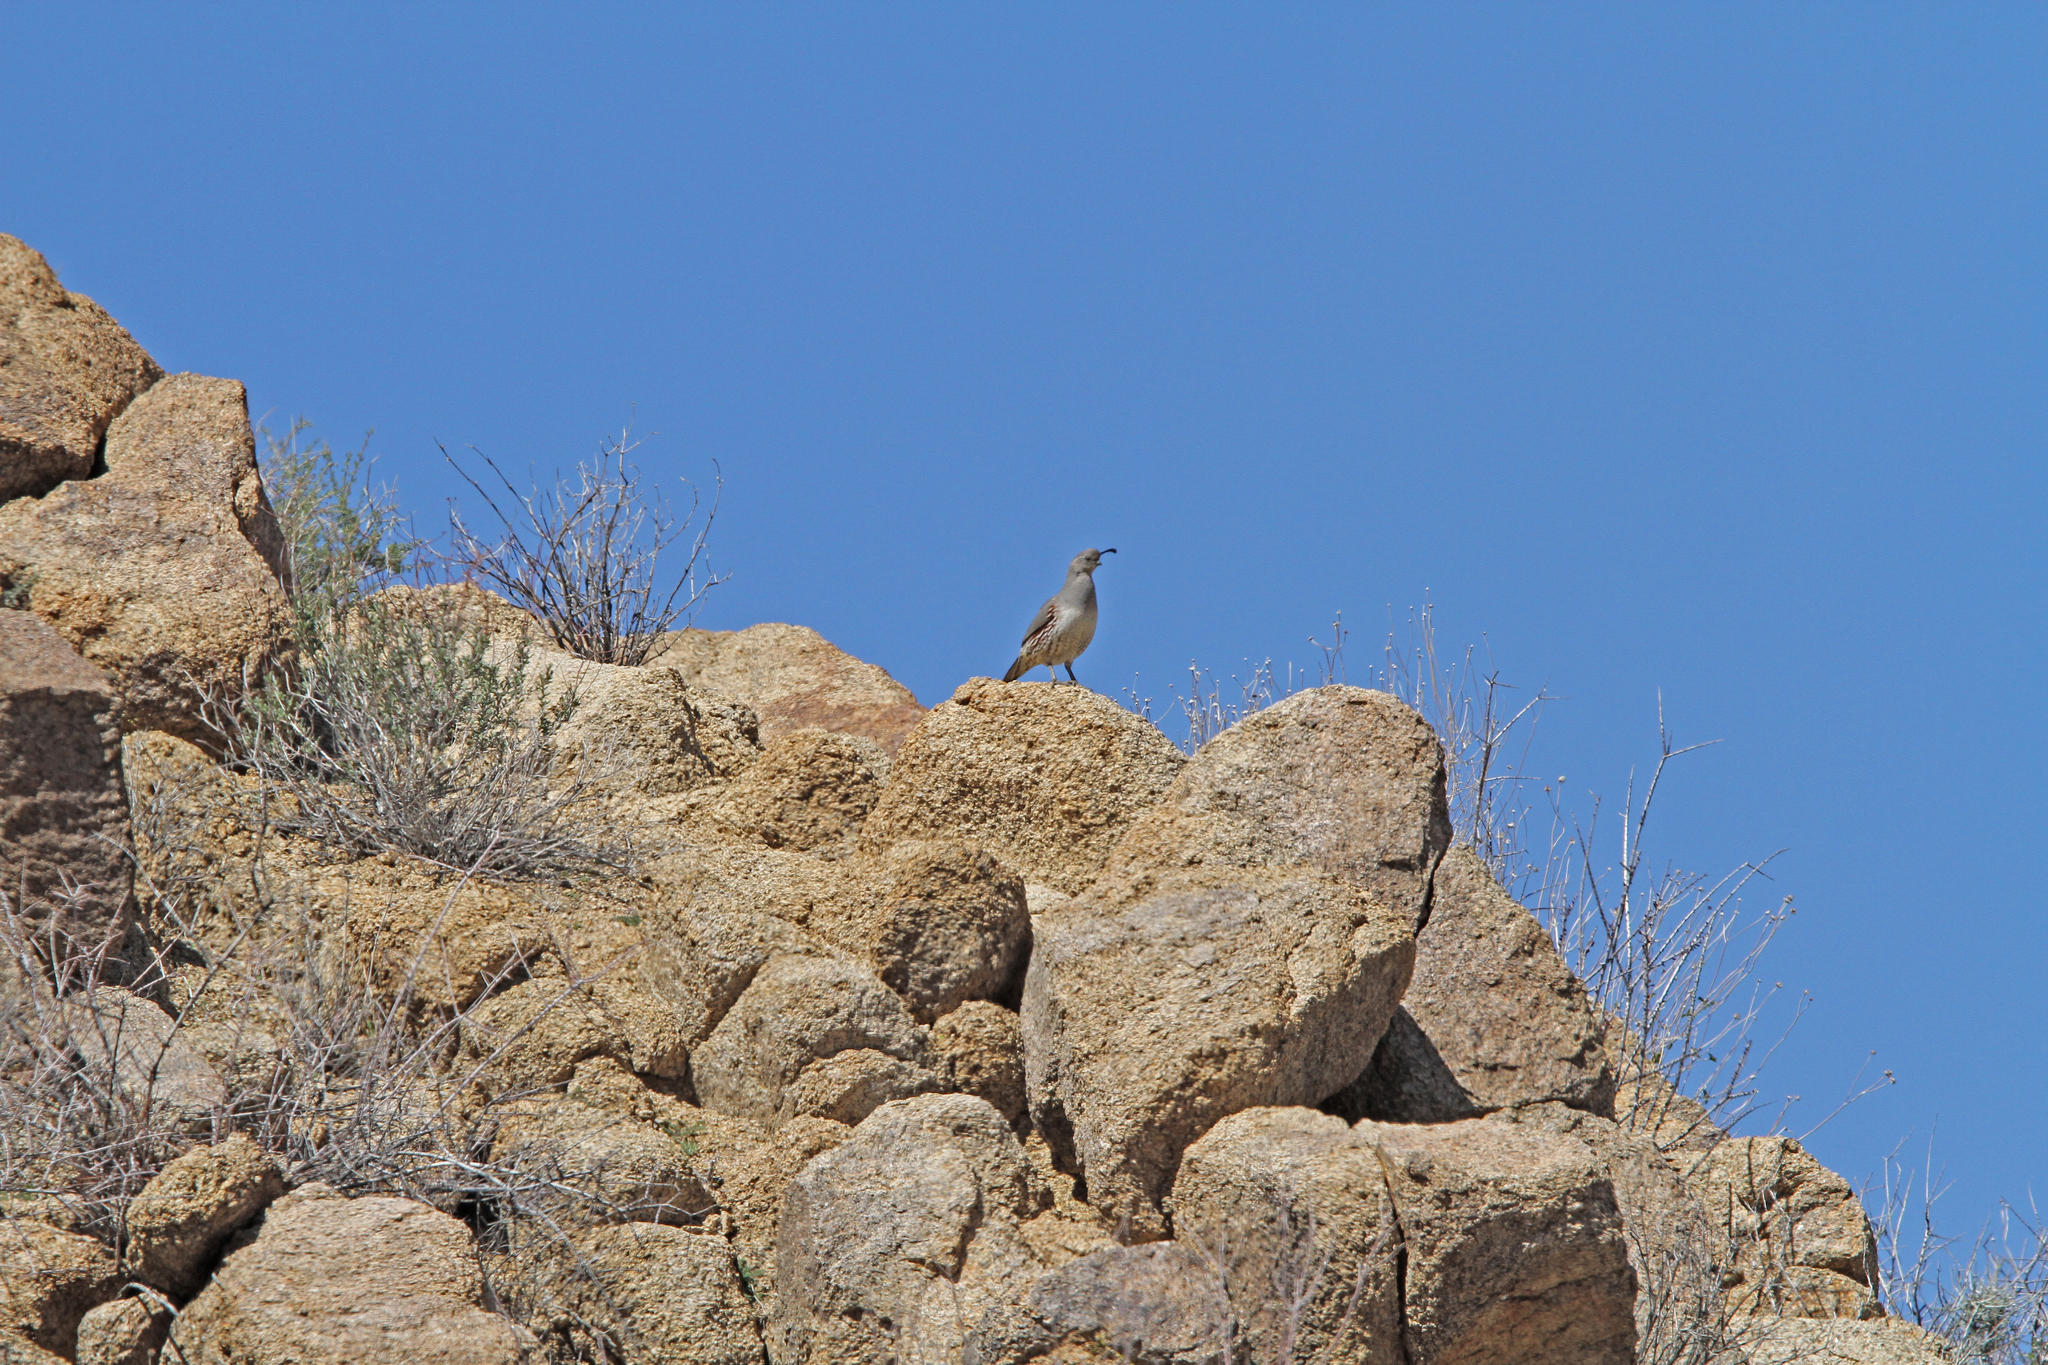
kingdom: Animalia
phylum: Chordata
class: Aves
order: Galliformes
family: Odontophoridae
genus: Callipepla
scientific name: Callipepla gambelii
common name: Gambel's quail
